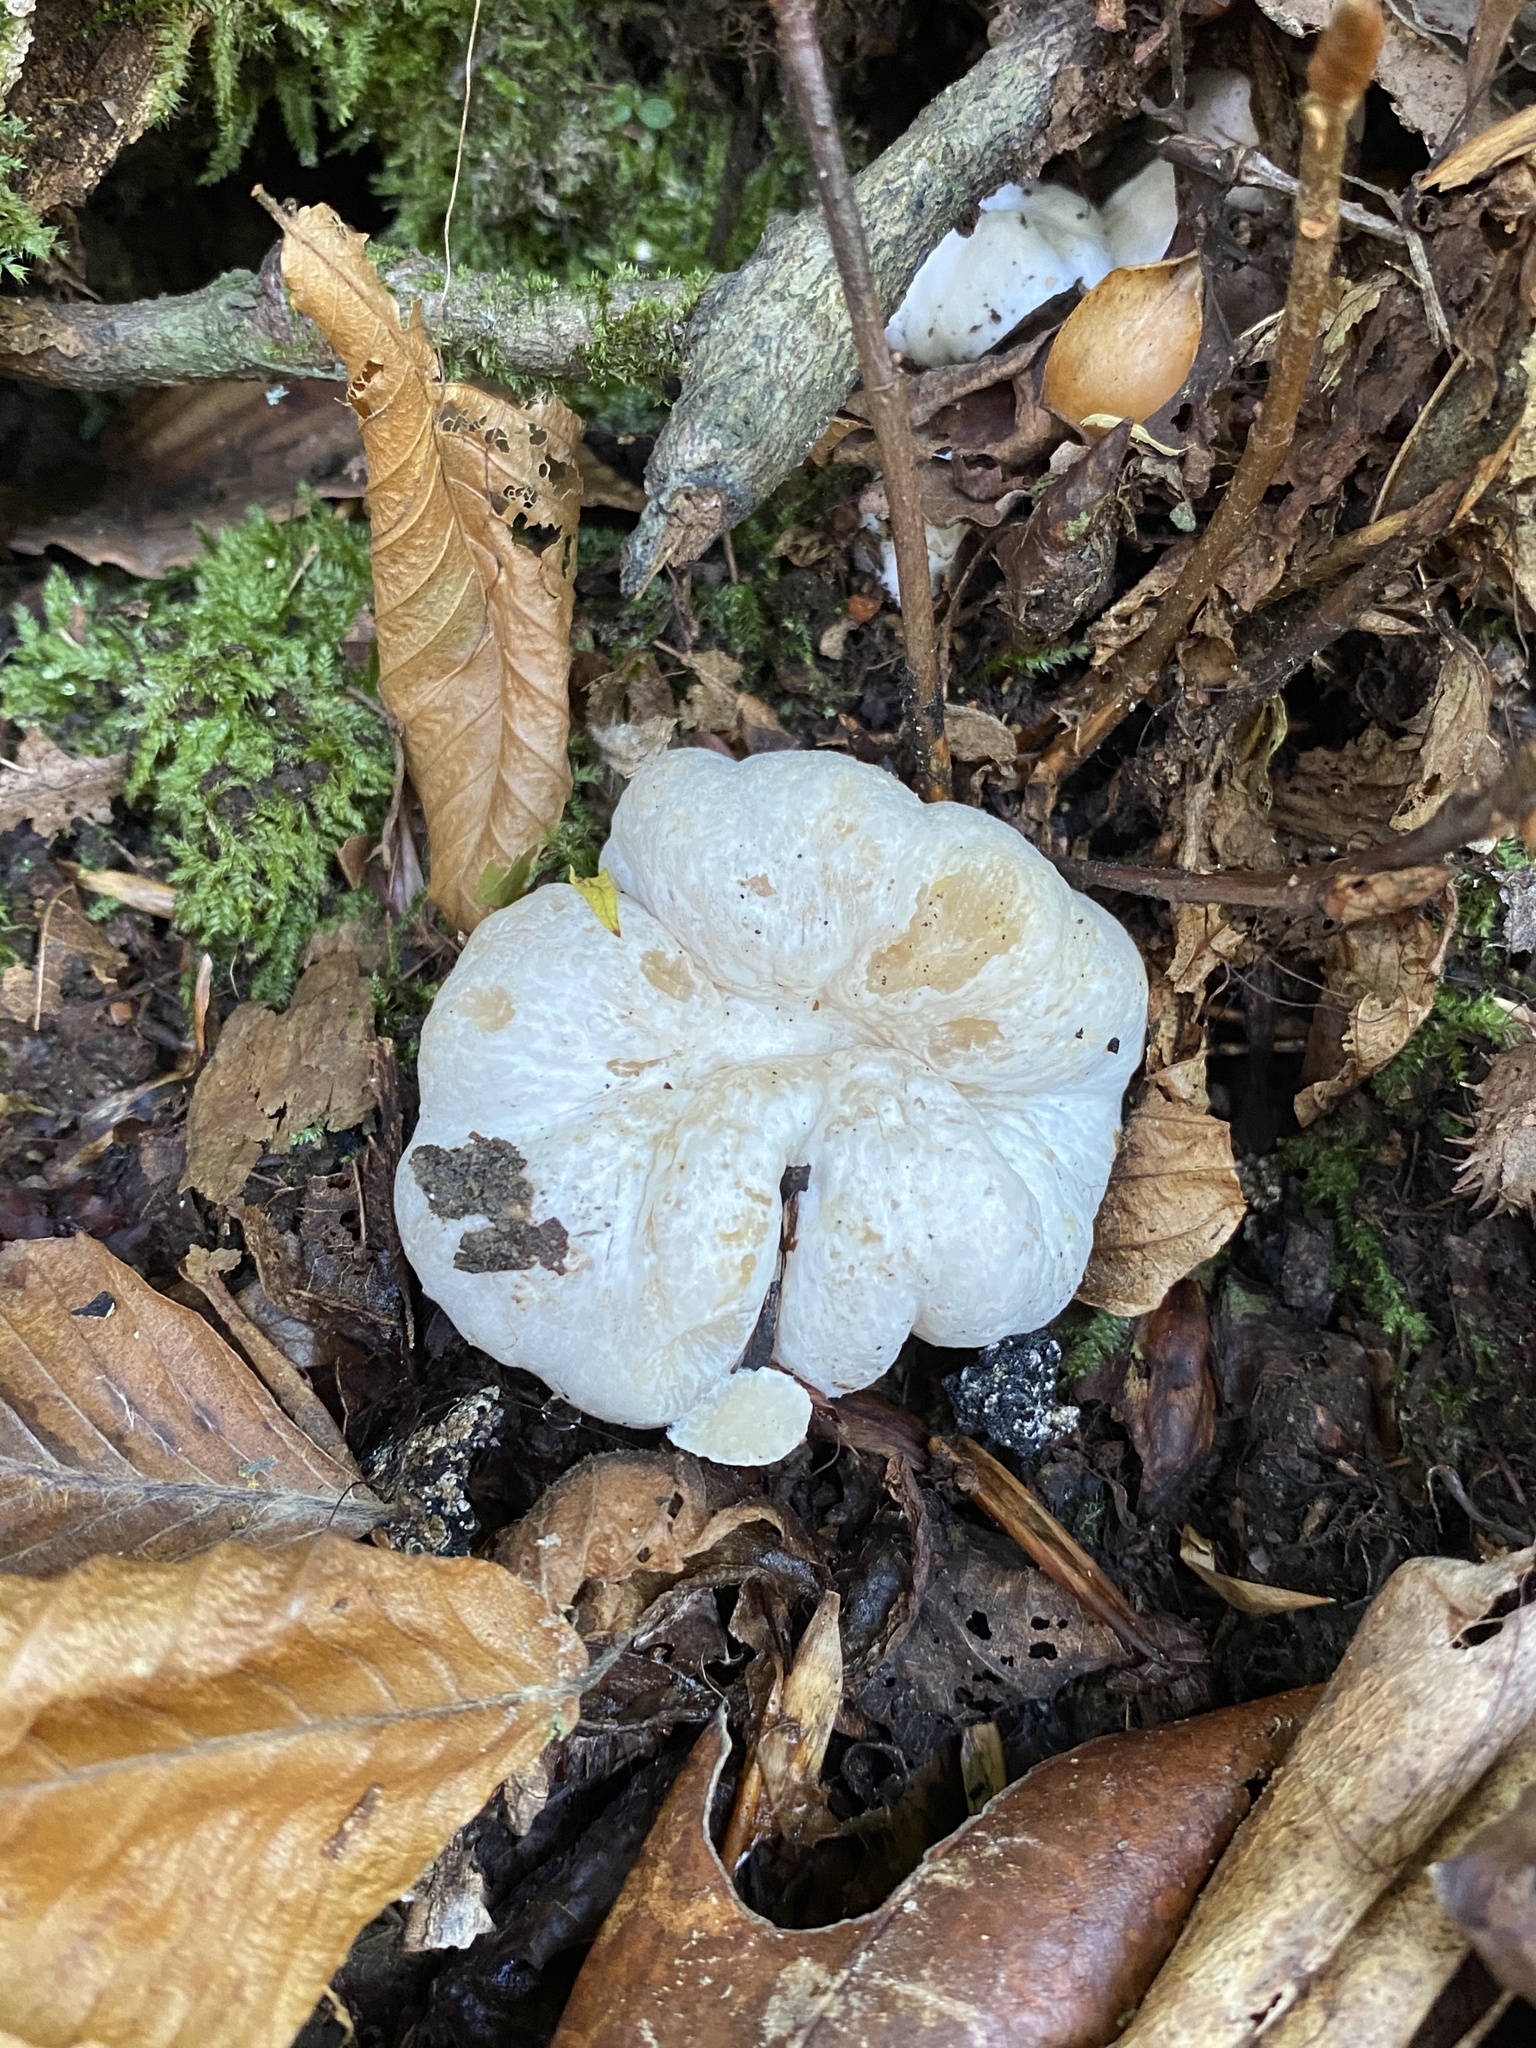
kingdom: Fungi
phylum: Basidiomycota
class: Agaricomycetes
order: Agaricales
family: Entolomataceae
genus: Entoloma
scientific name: Entoloma abortivum
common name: Aborted entoloma
